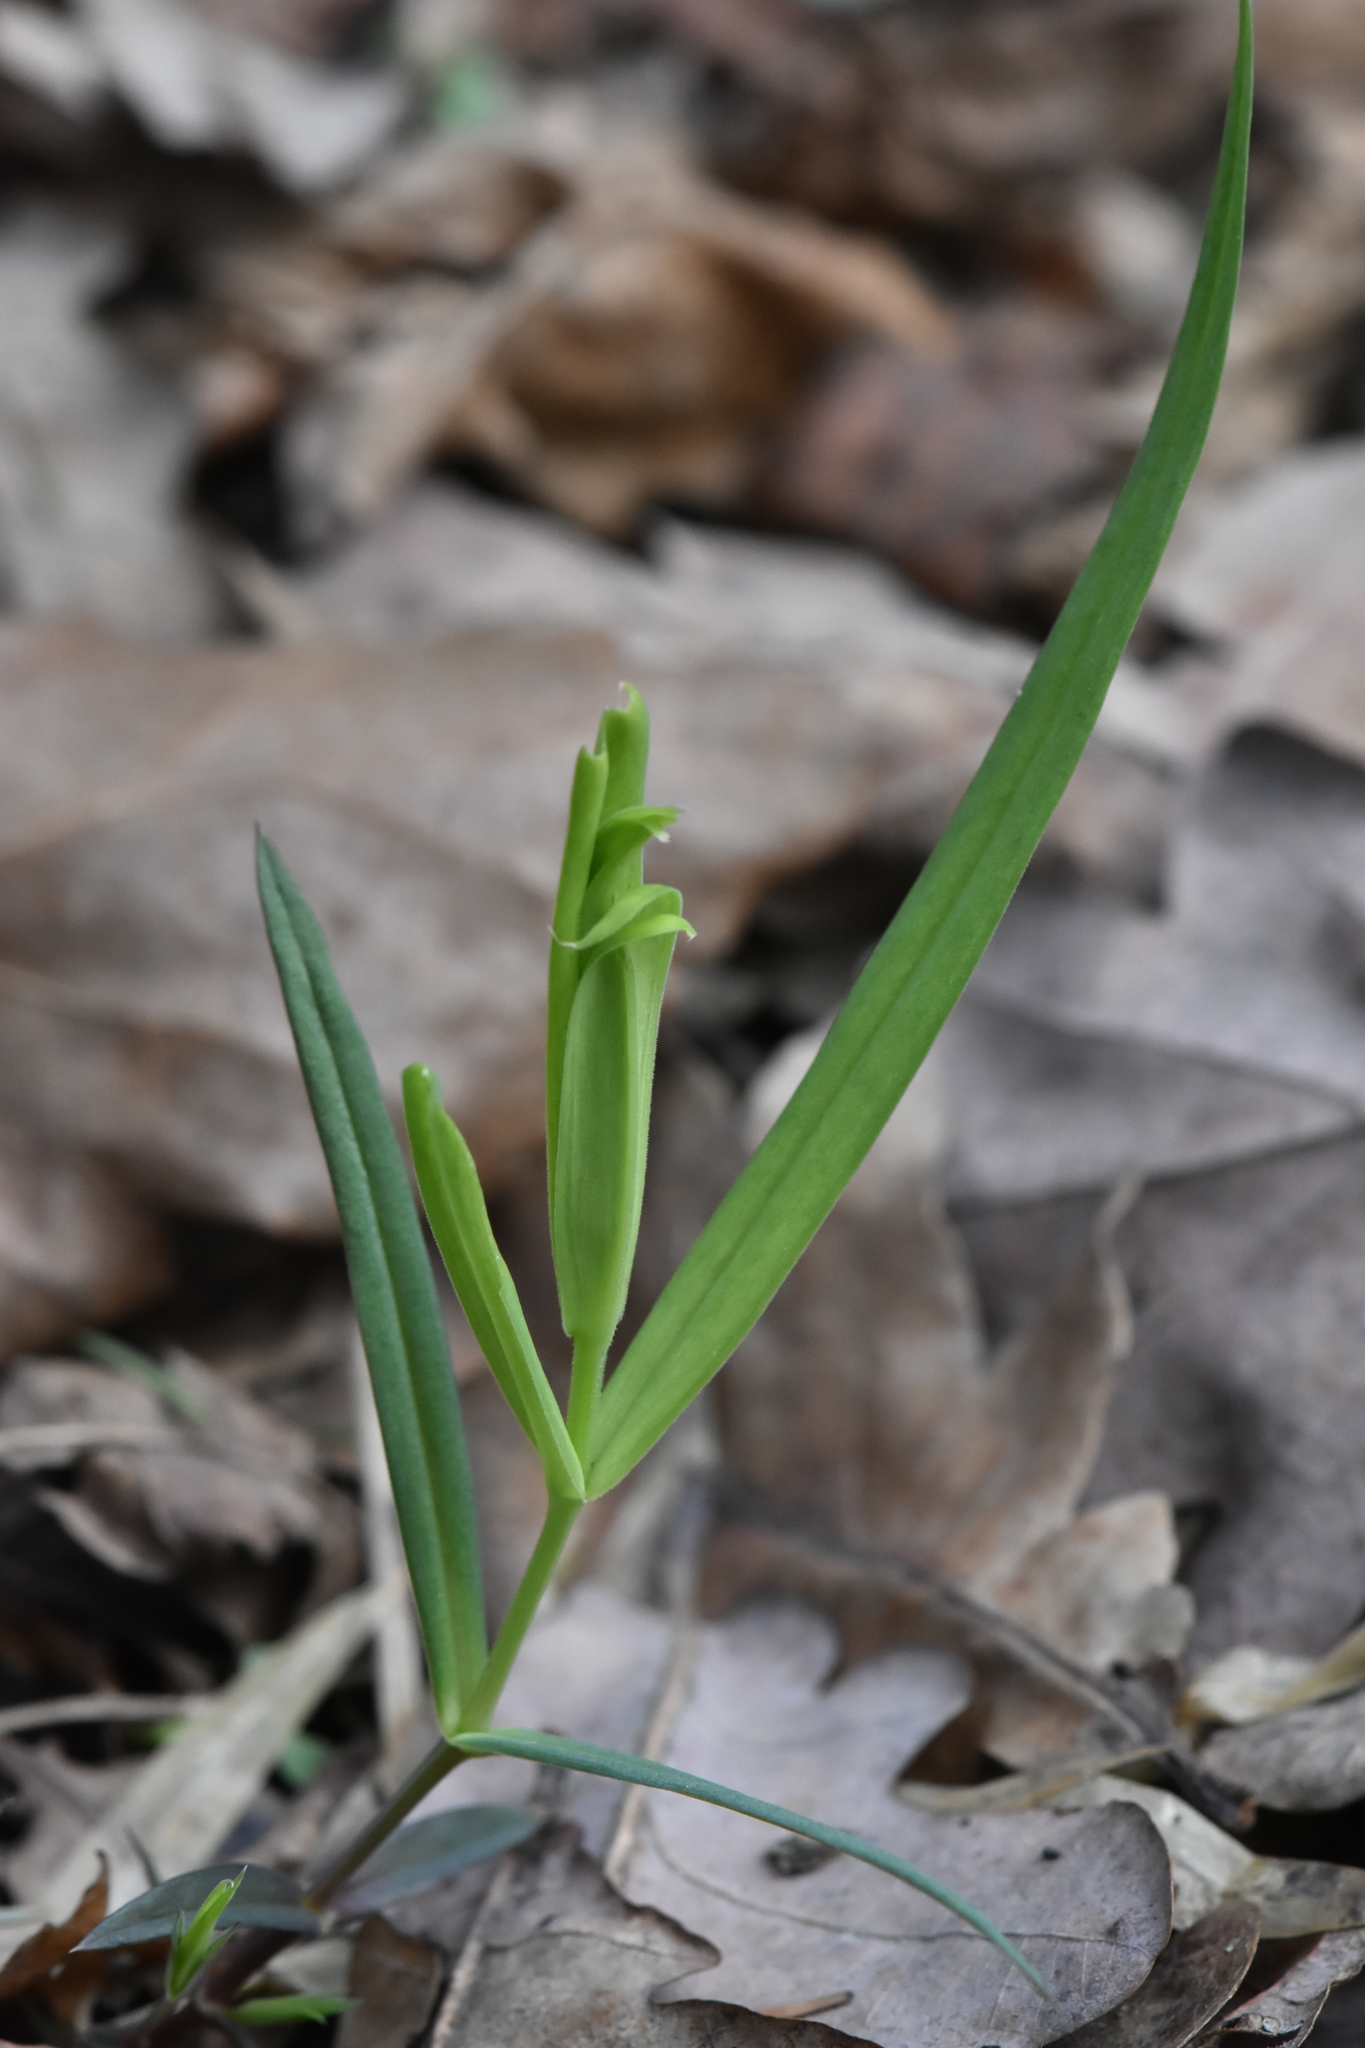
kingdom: Plantae
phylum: Tracheophyta
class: Magnoliopsida
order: Caryophyllales
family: Caryophyllaceae
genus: Rabelera
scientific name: Rabelera holostea
